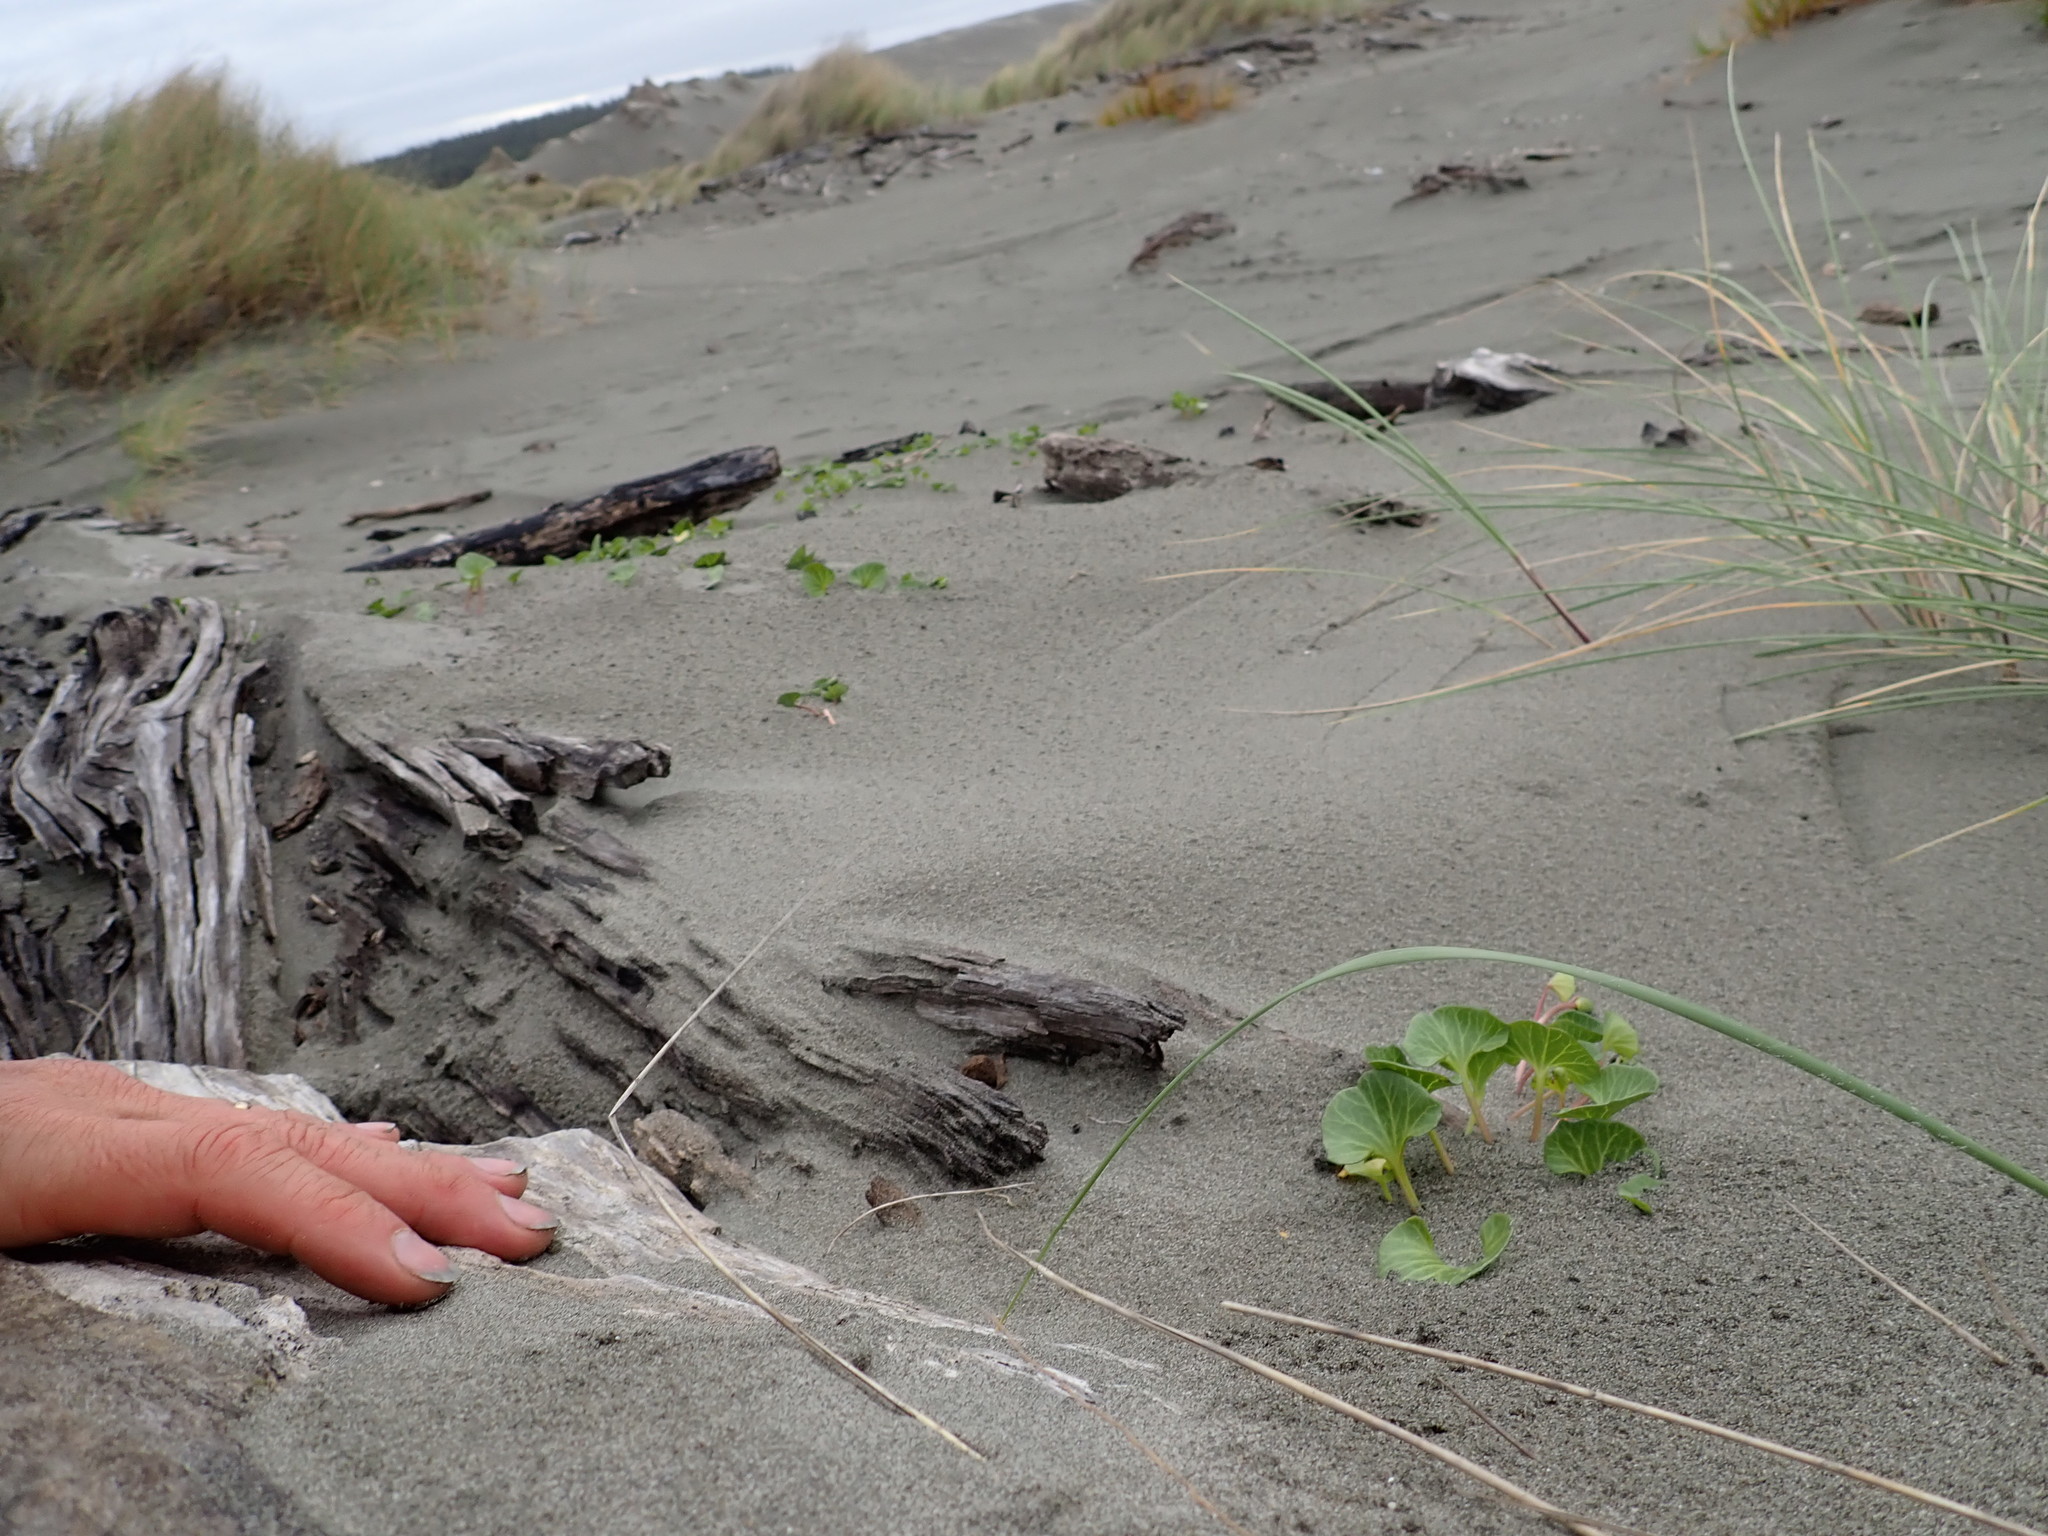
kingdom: Plantae
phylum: Tracheophyta
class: Magnoliopsida
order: Solanales
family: Convolvulaceae
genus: Calystegia
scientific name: Calystegia soldanella
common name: Sea bindweed
